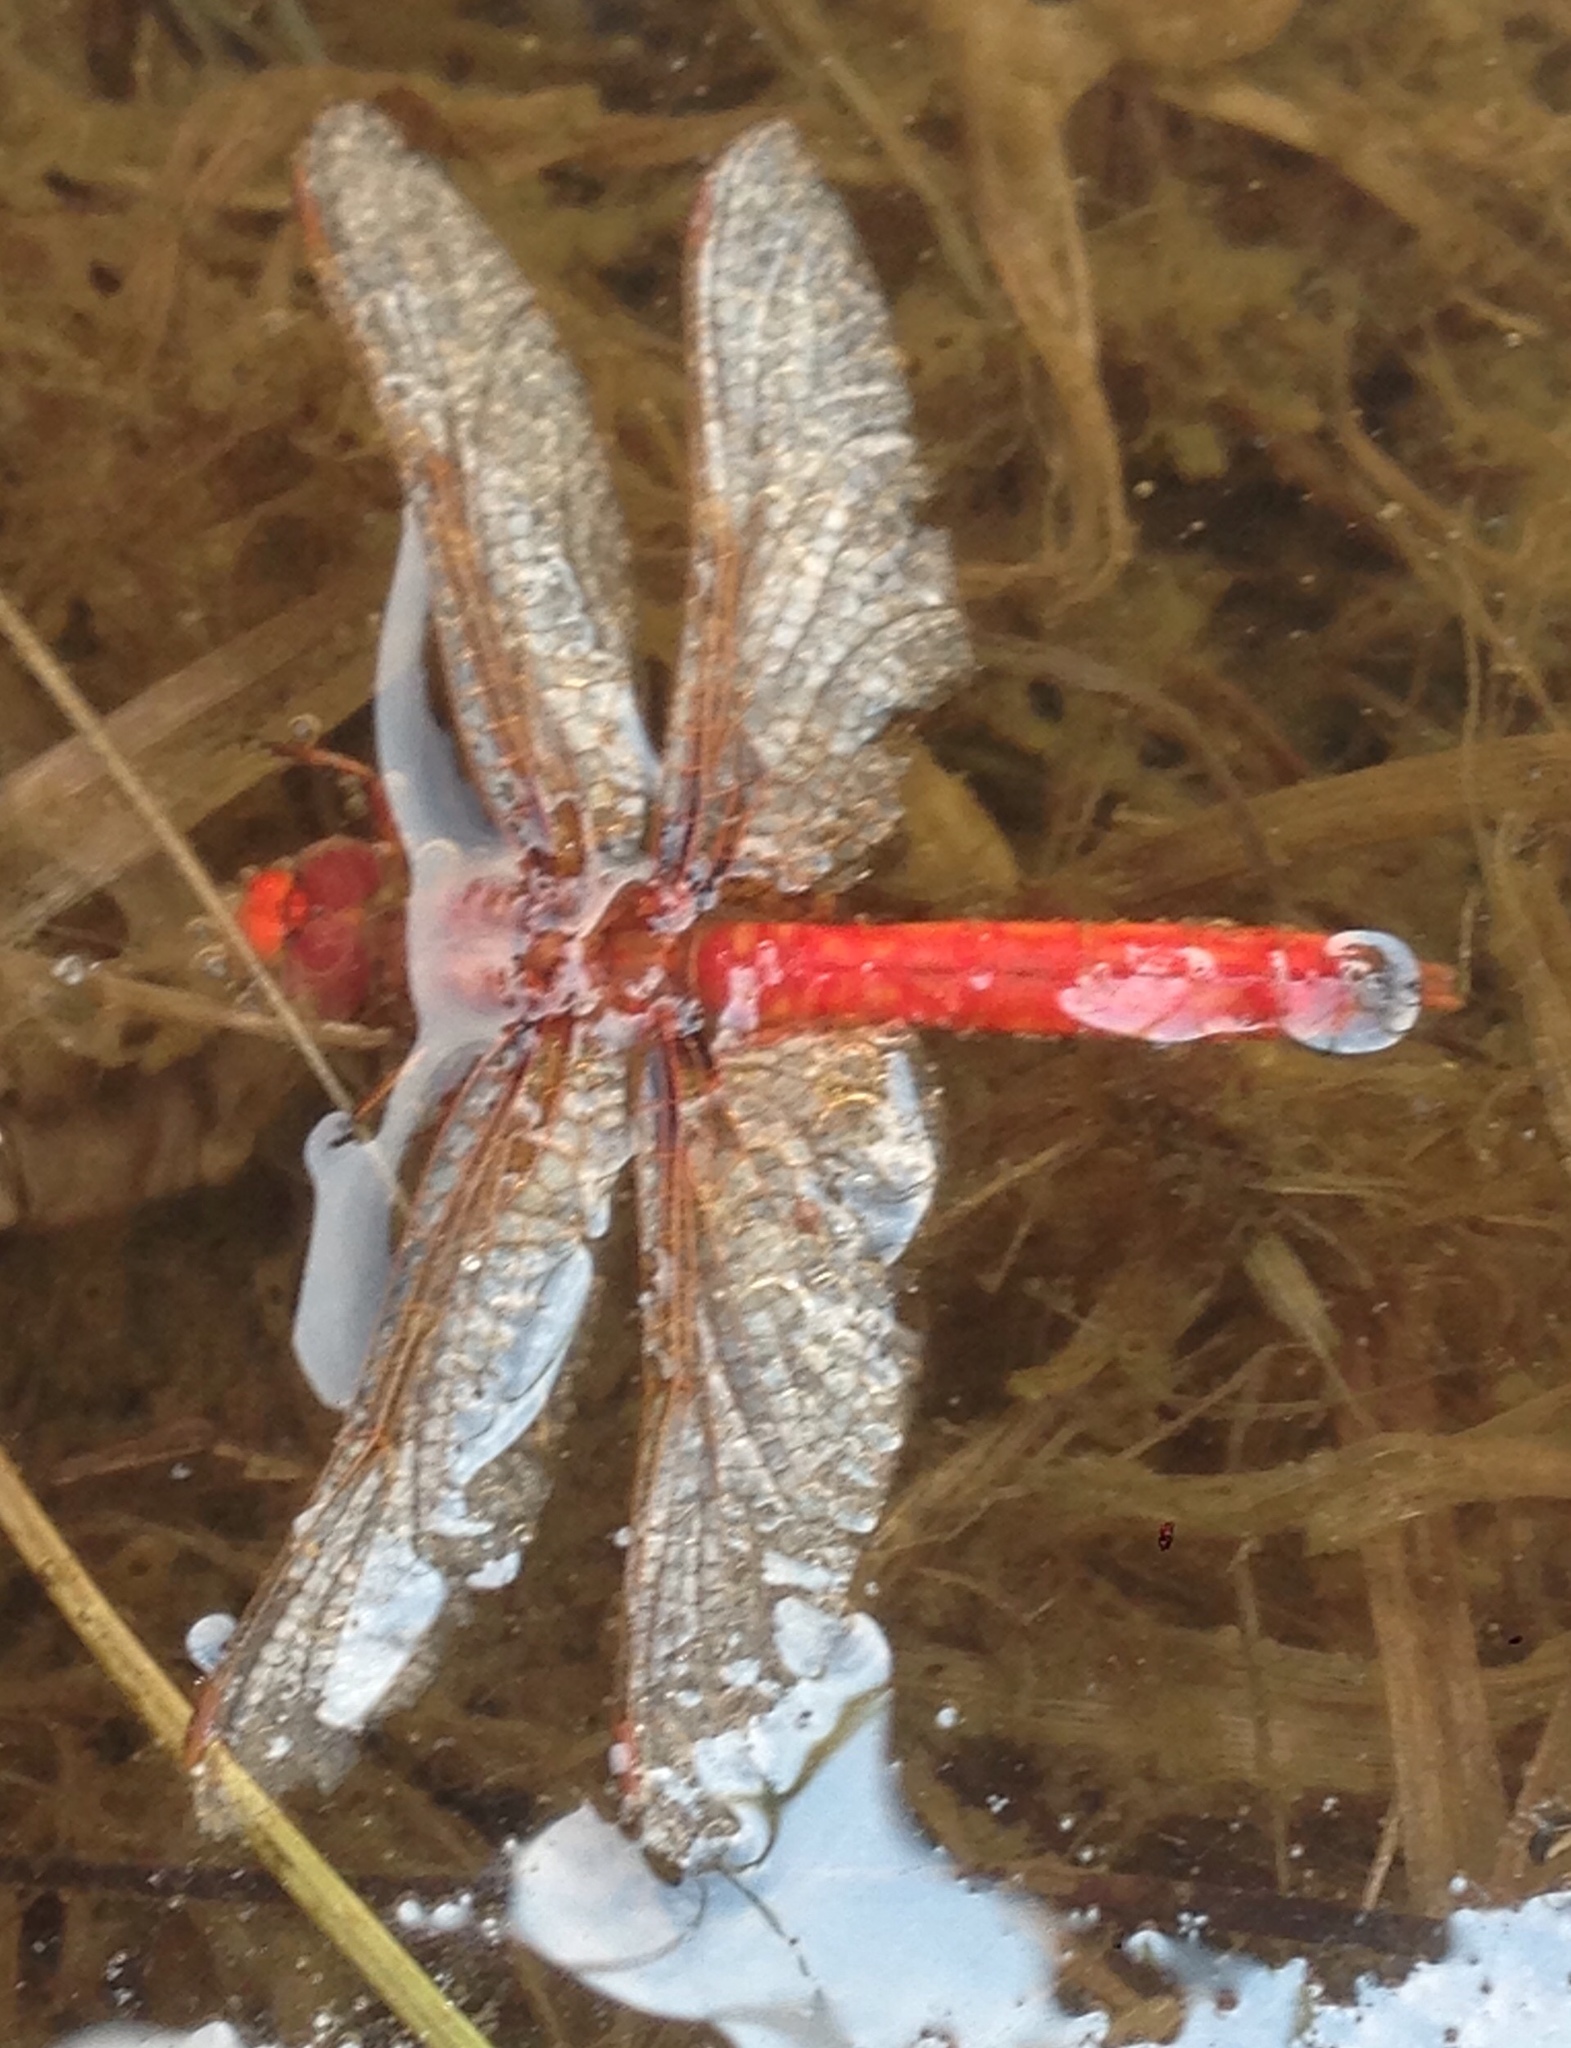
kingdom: Animalia
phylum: Arthropoda
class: Insecta
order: Odonata
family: Libellulidae
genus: Sympetrum
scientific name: Sympetrum illotum
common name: Cardinal meadowhawk
